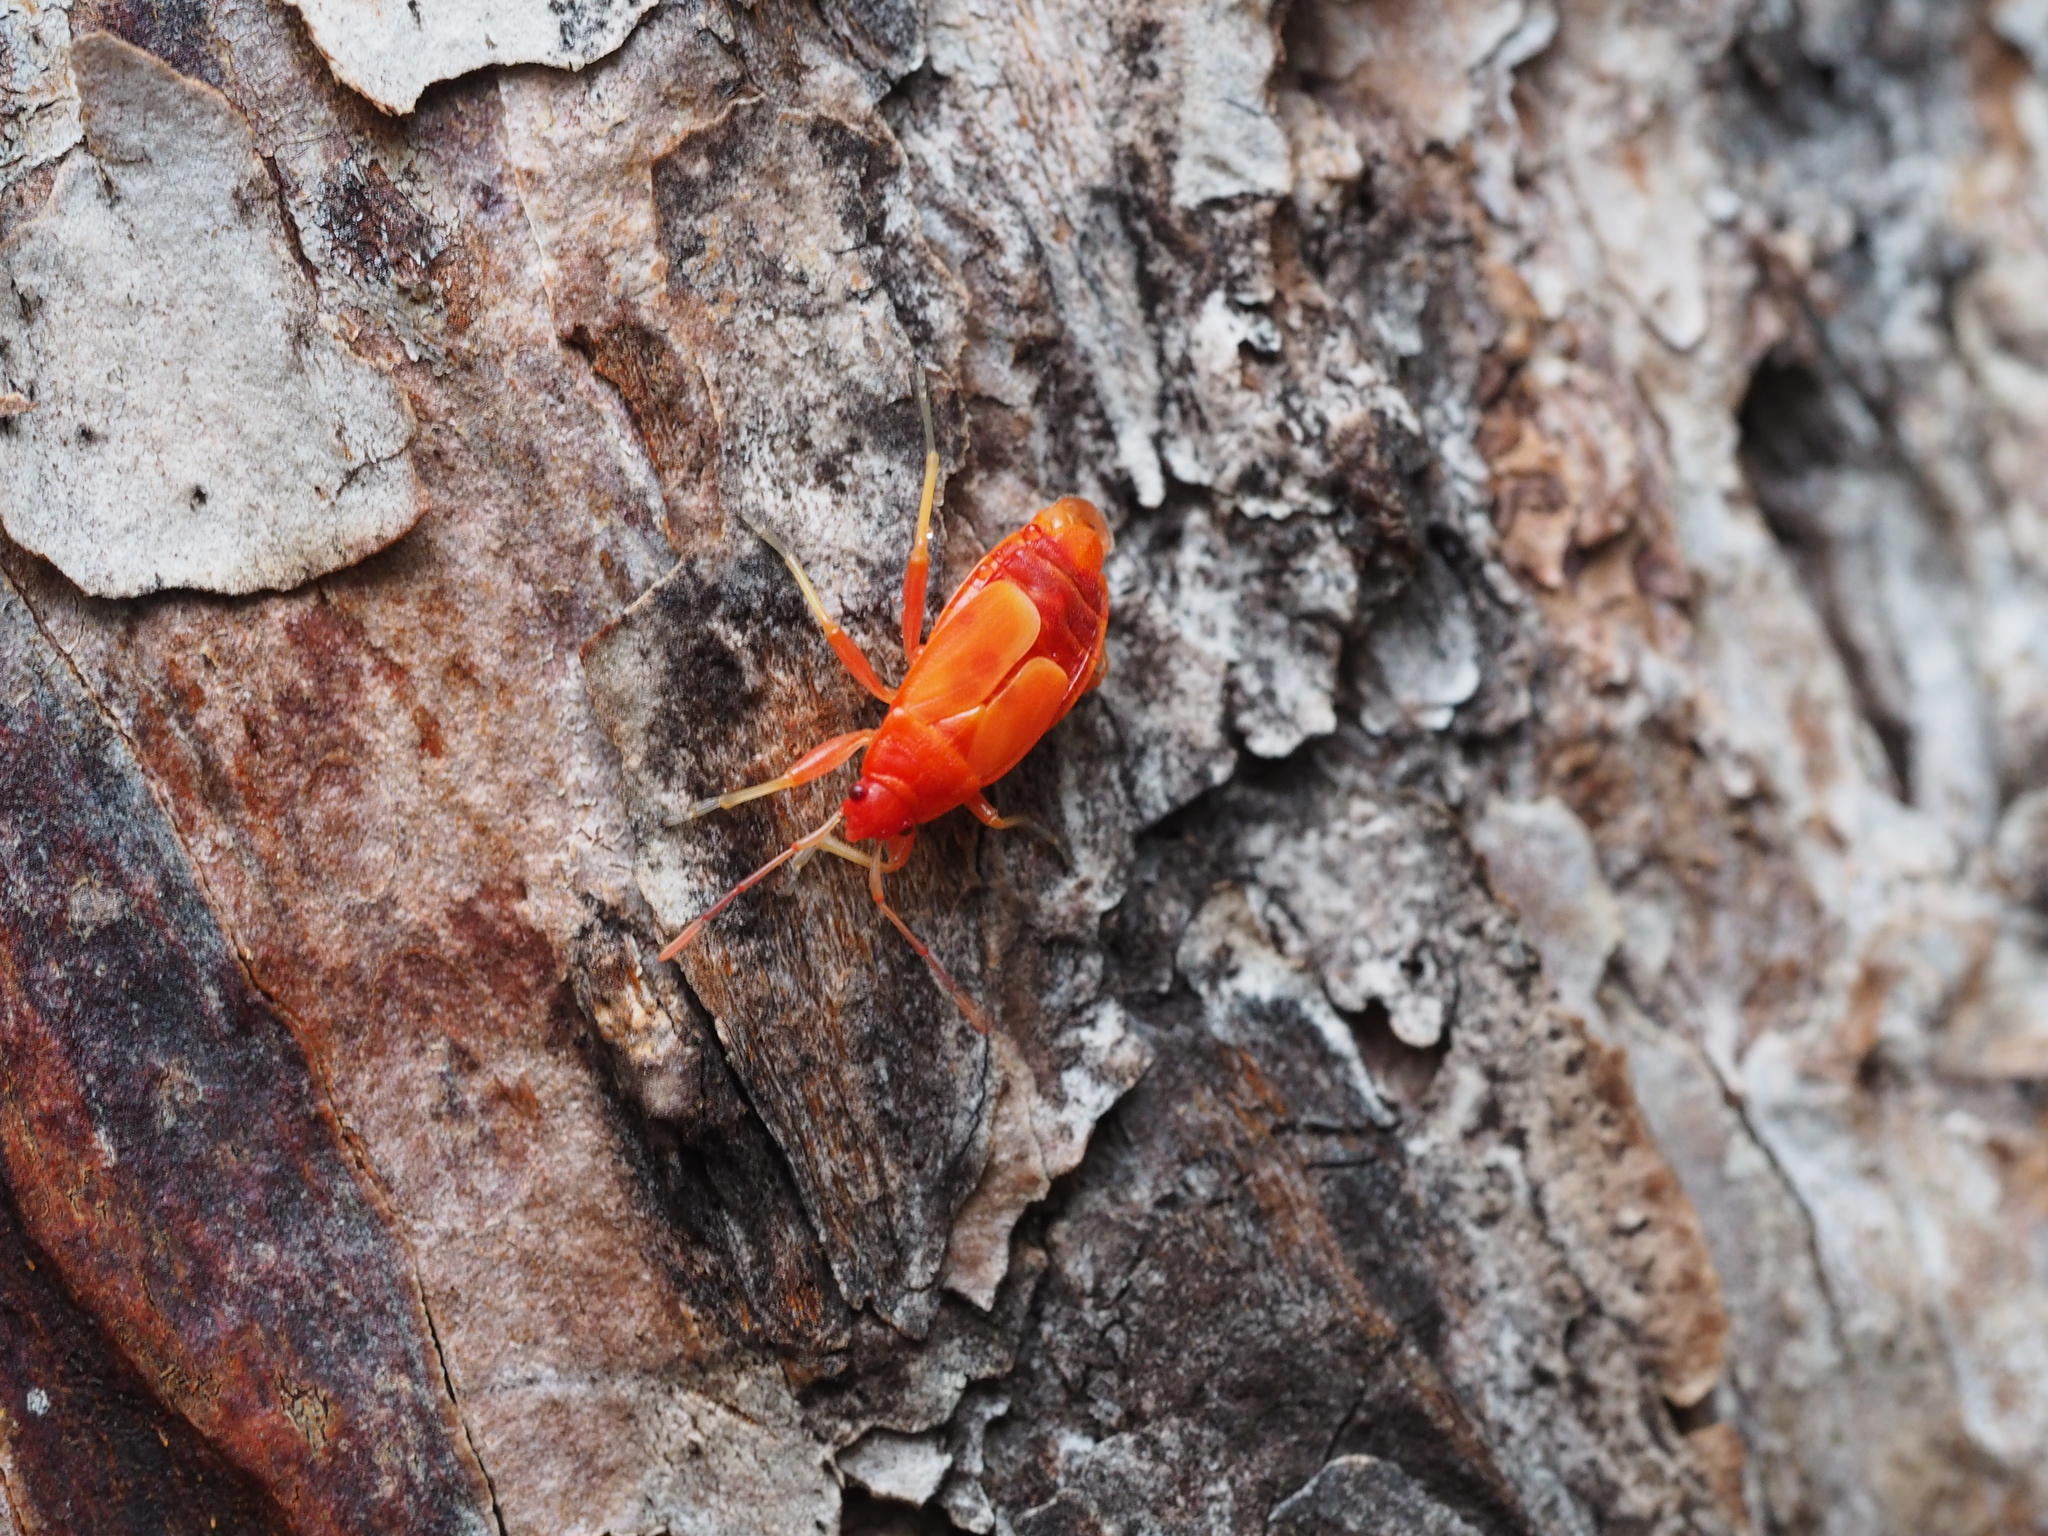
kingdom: Animalia
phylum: Arthropoda
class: Insecta
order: Hemiptera
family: Pyrrhocoridae
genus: Pyrrhocoris
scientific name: Pyrrhocoris apterus
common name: Firebug
